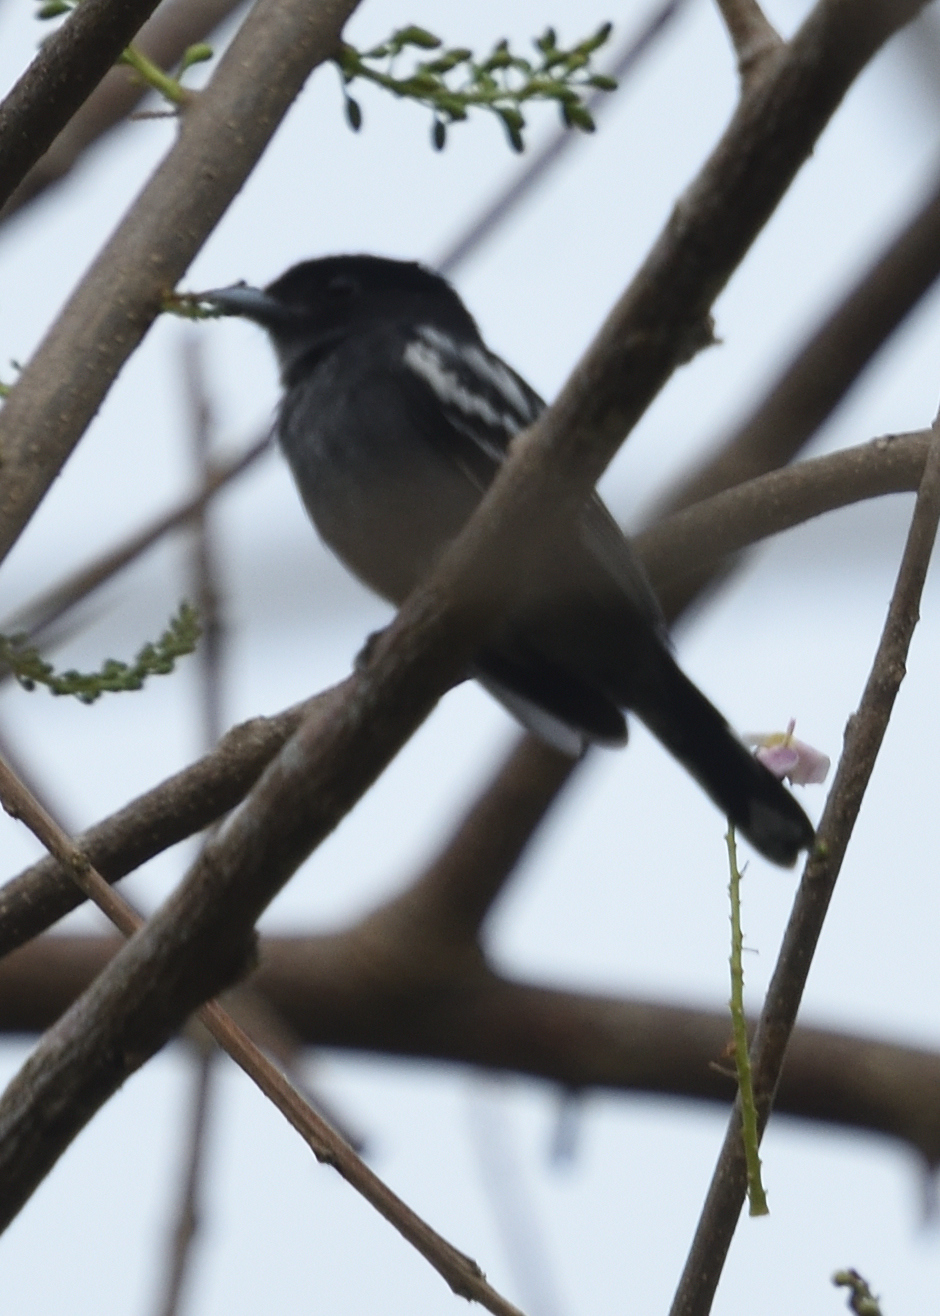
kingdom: Animalia
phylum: Chordata
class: Aves
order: Passeriformes
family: Cotingidae
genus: Pachyramphus
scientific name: Pachyramphus polychopterus
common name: White-winged becard
